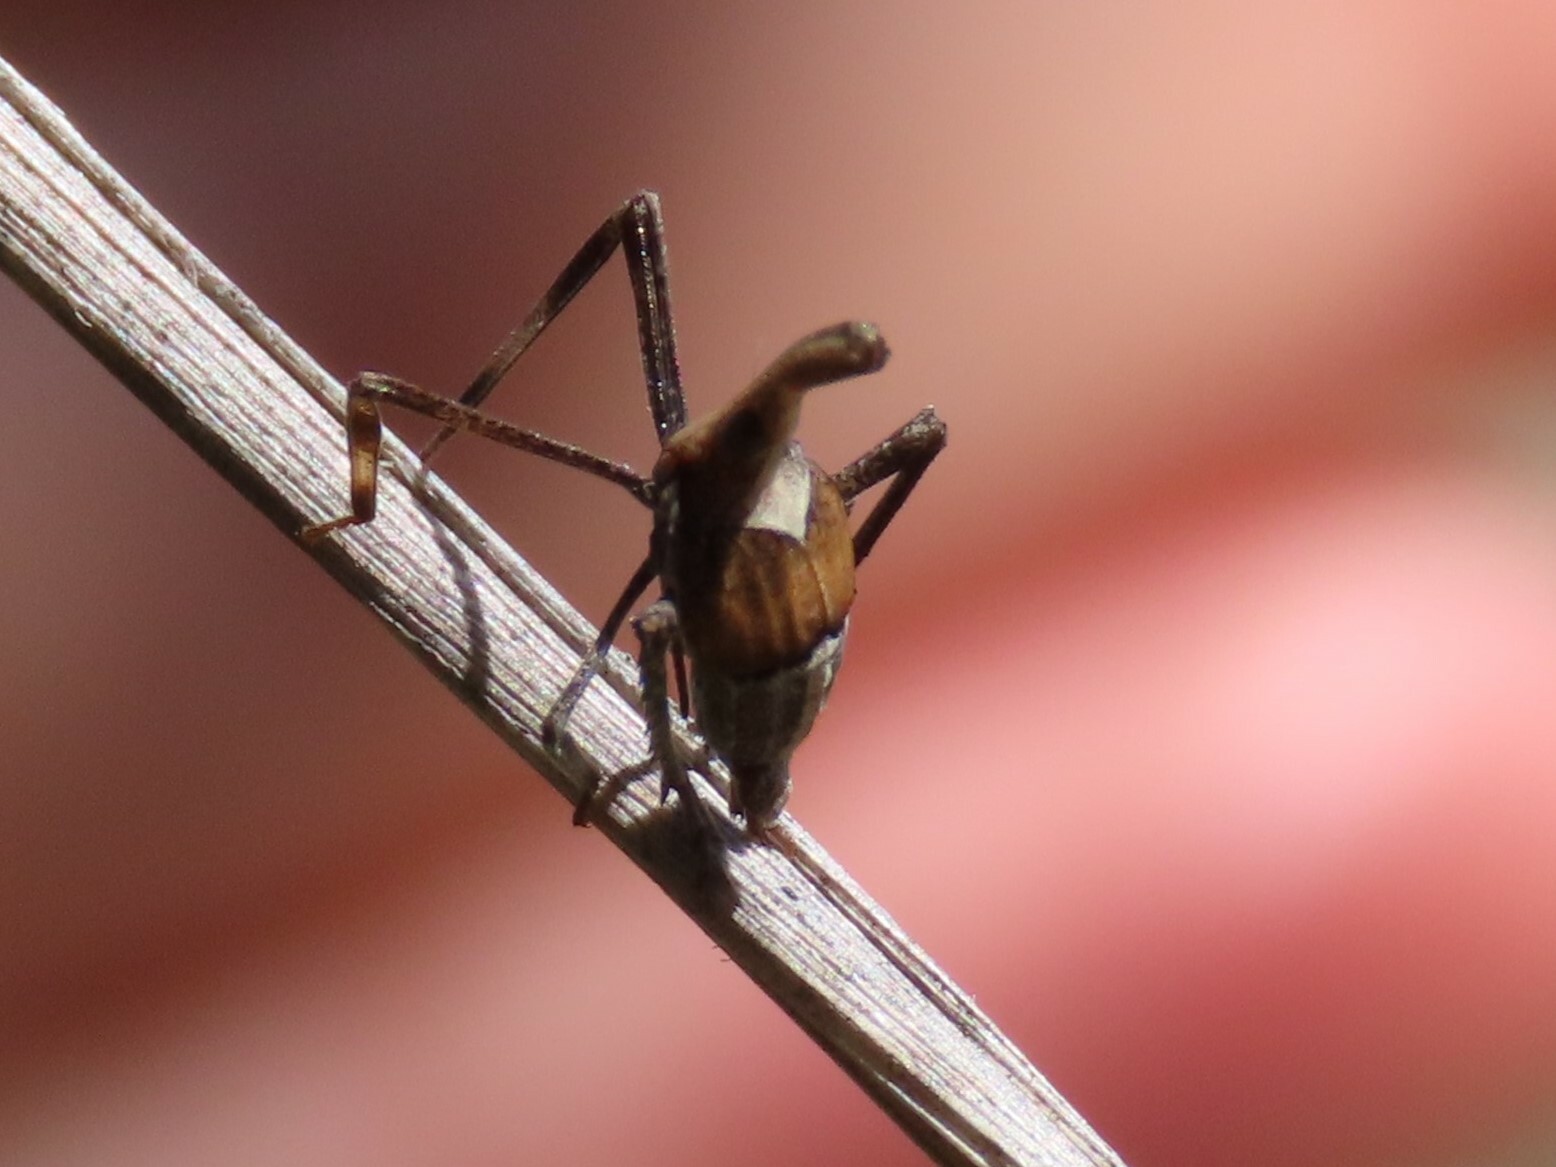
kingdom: Animalia
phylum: Arthropoda
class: Insecta
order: Hemiptera
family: Dictyopharidae
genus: Almana
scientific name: Almana longipes
